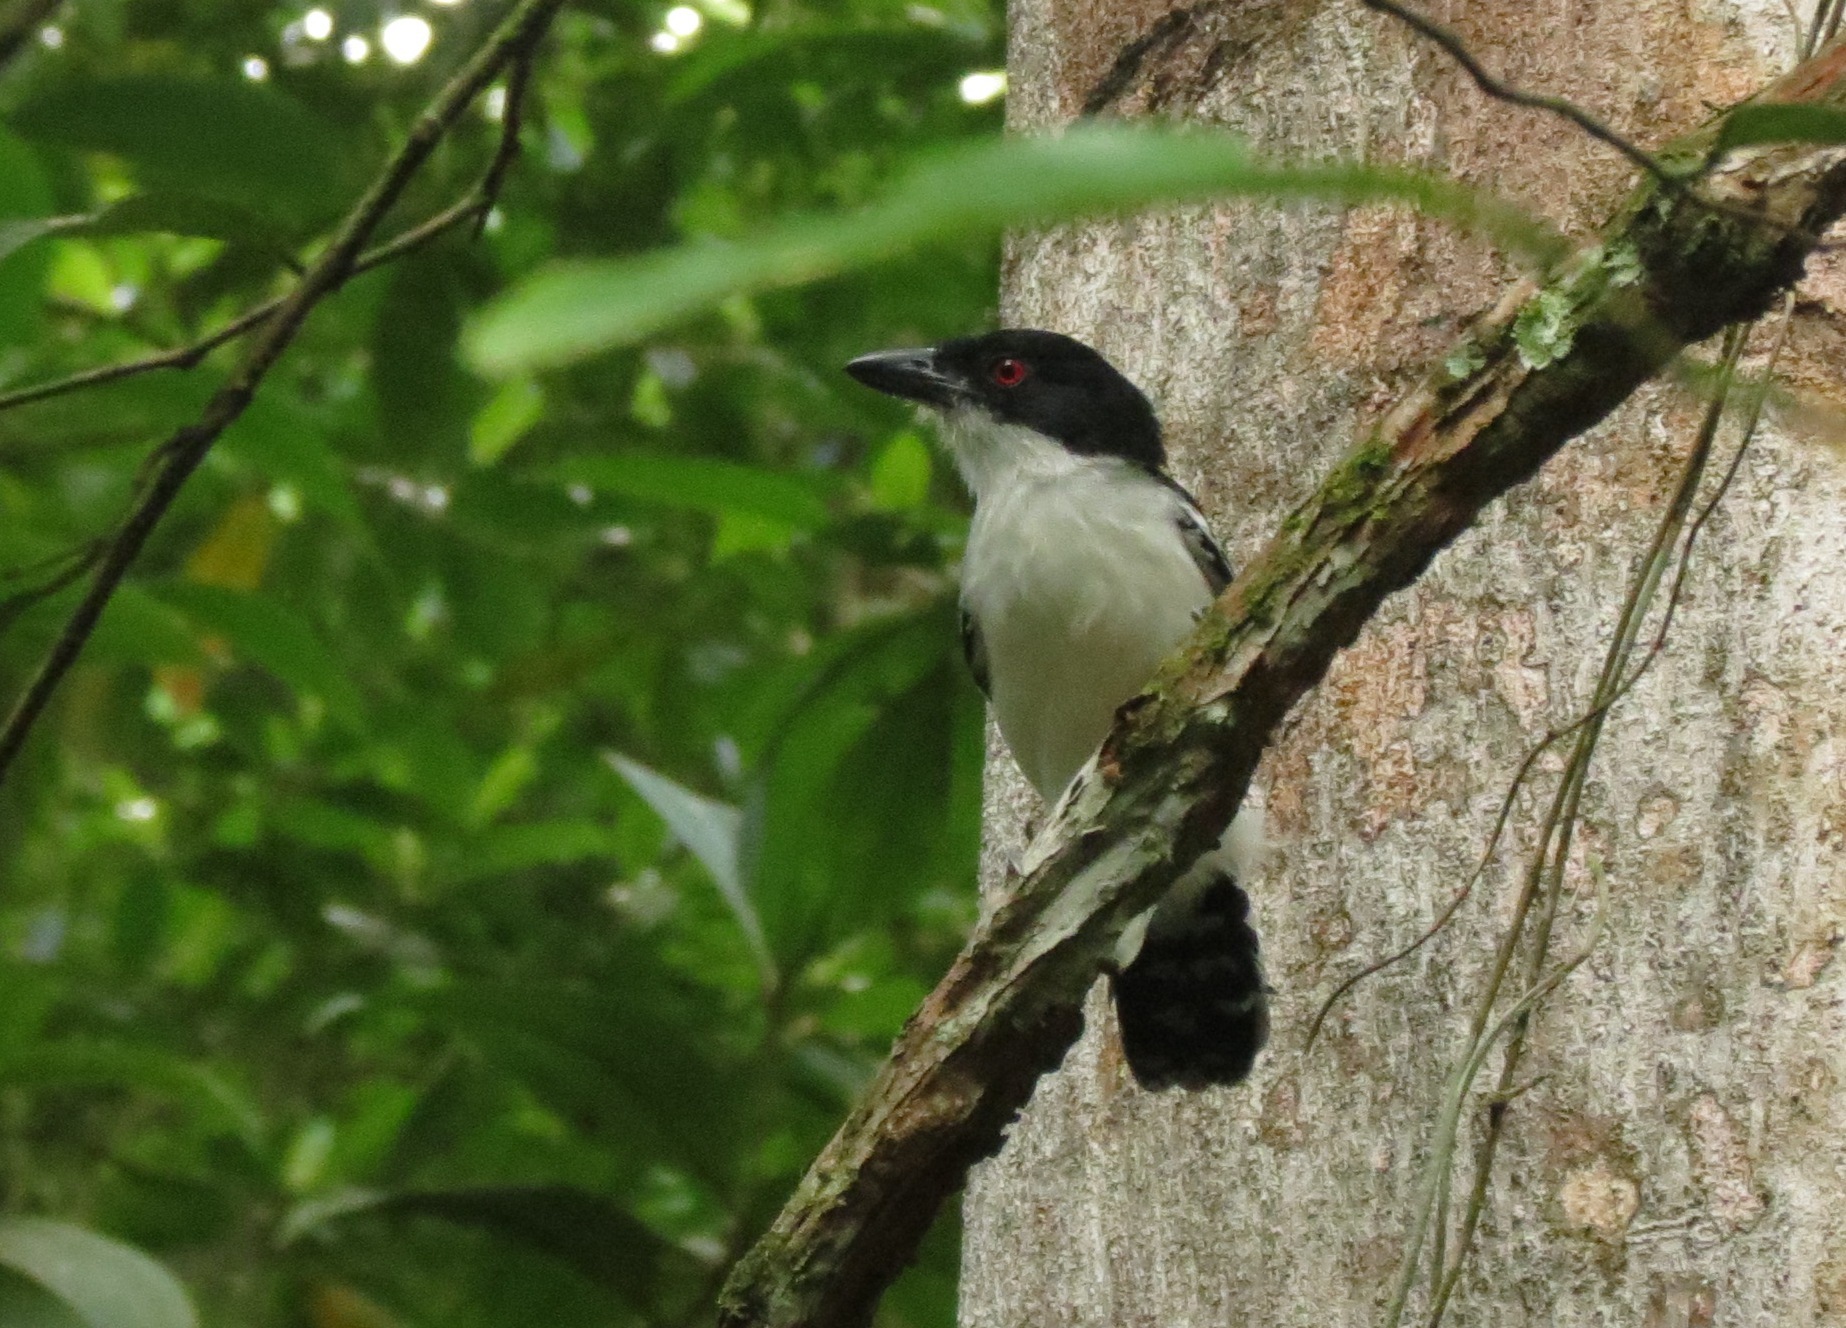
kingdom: Animalia
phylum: Chordata
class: Aves
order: Passeriformes
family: Thamnophilidae
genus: Taraba
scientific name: Taraba major
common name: Great antshrike
